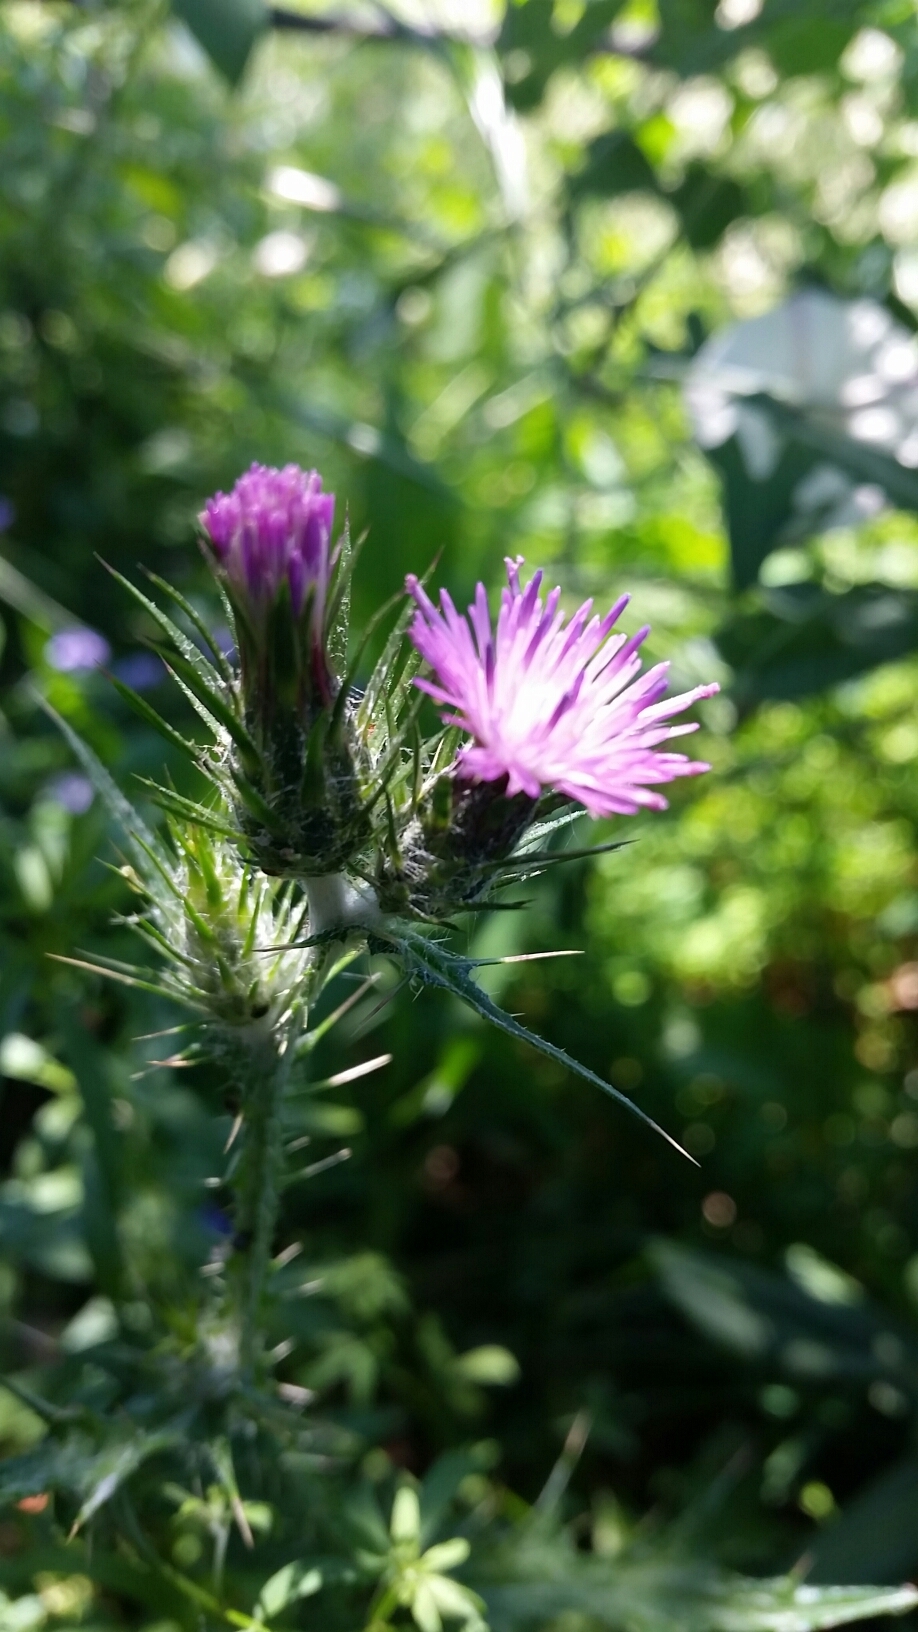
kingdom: Plantae
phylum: Tracheophyta
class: Magnoliopsida
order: Asterales
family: Asteraceae
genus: Carduus
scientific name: Carduus pycnocephalus
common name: Plymouth thistle
